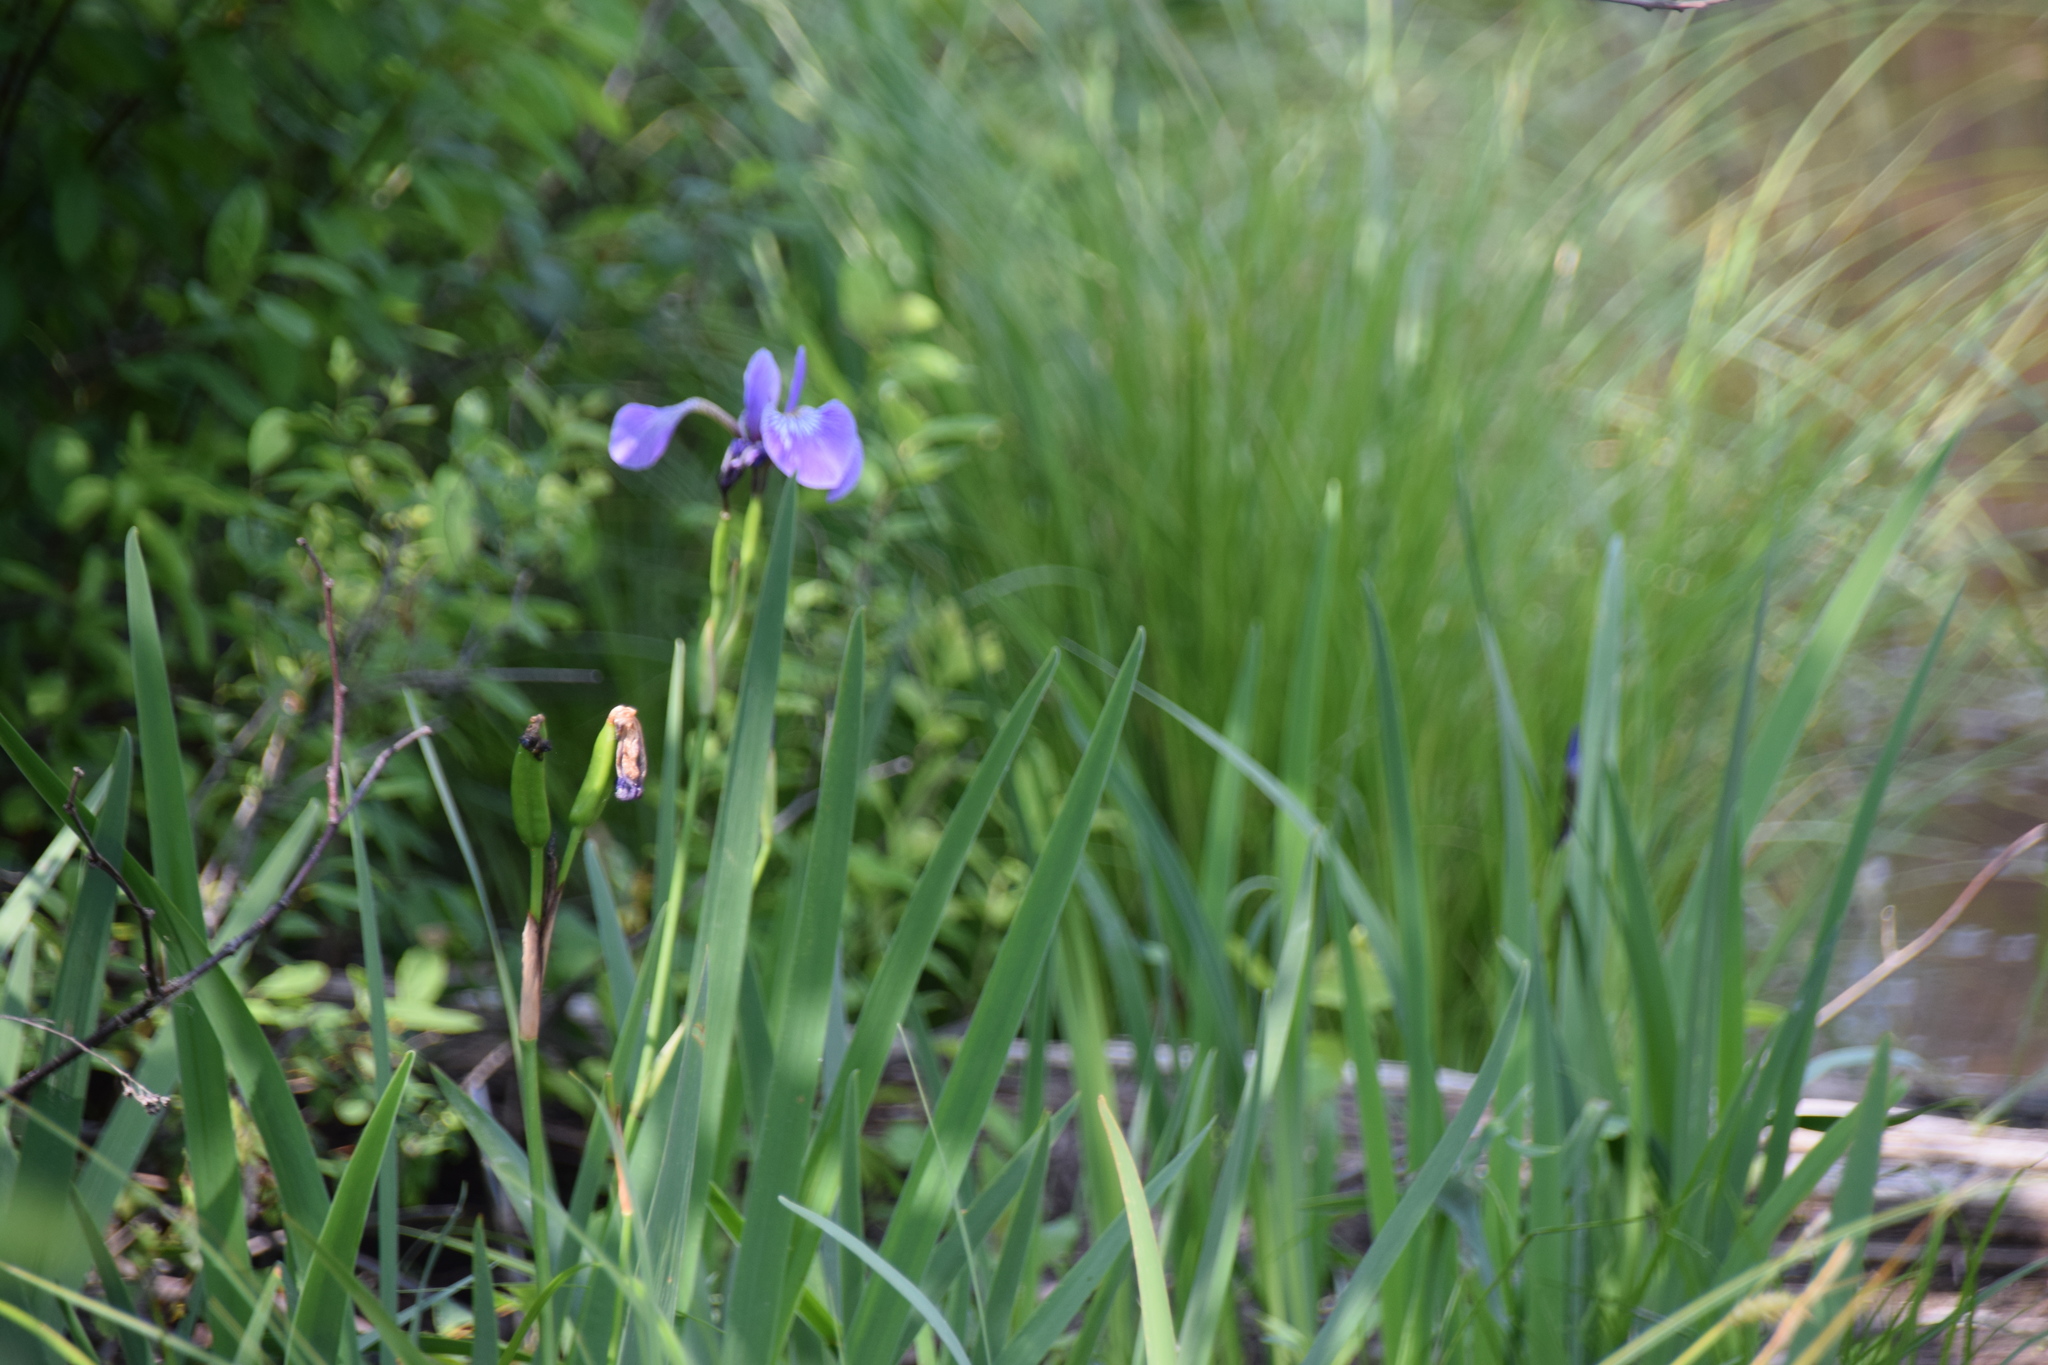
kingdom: Plantae
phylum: Tracheophyta
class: Liliopsida
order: Asparagales
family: Iridaceae
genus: Iris
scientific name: Iris versicolor
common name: Purple iris
